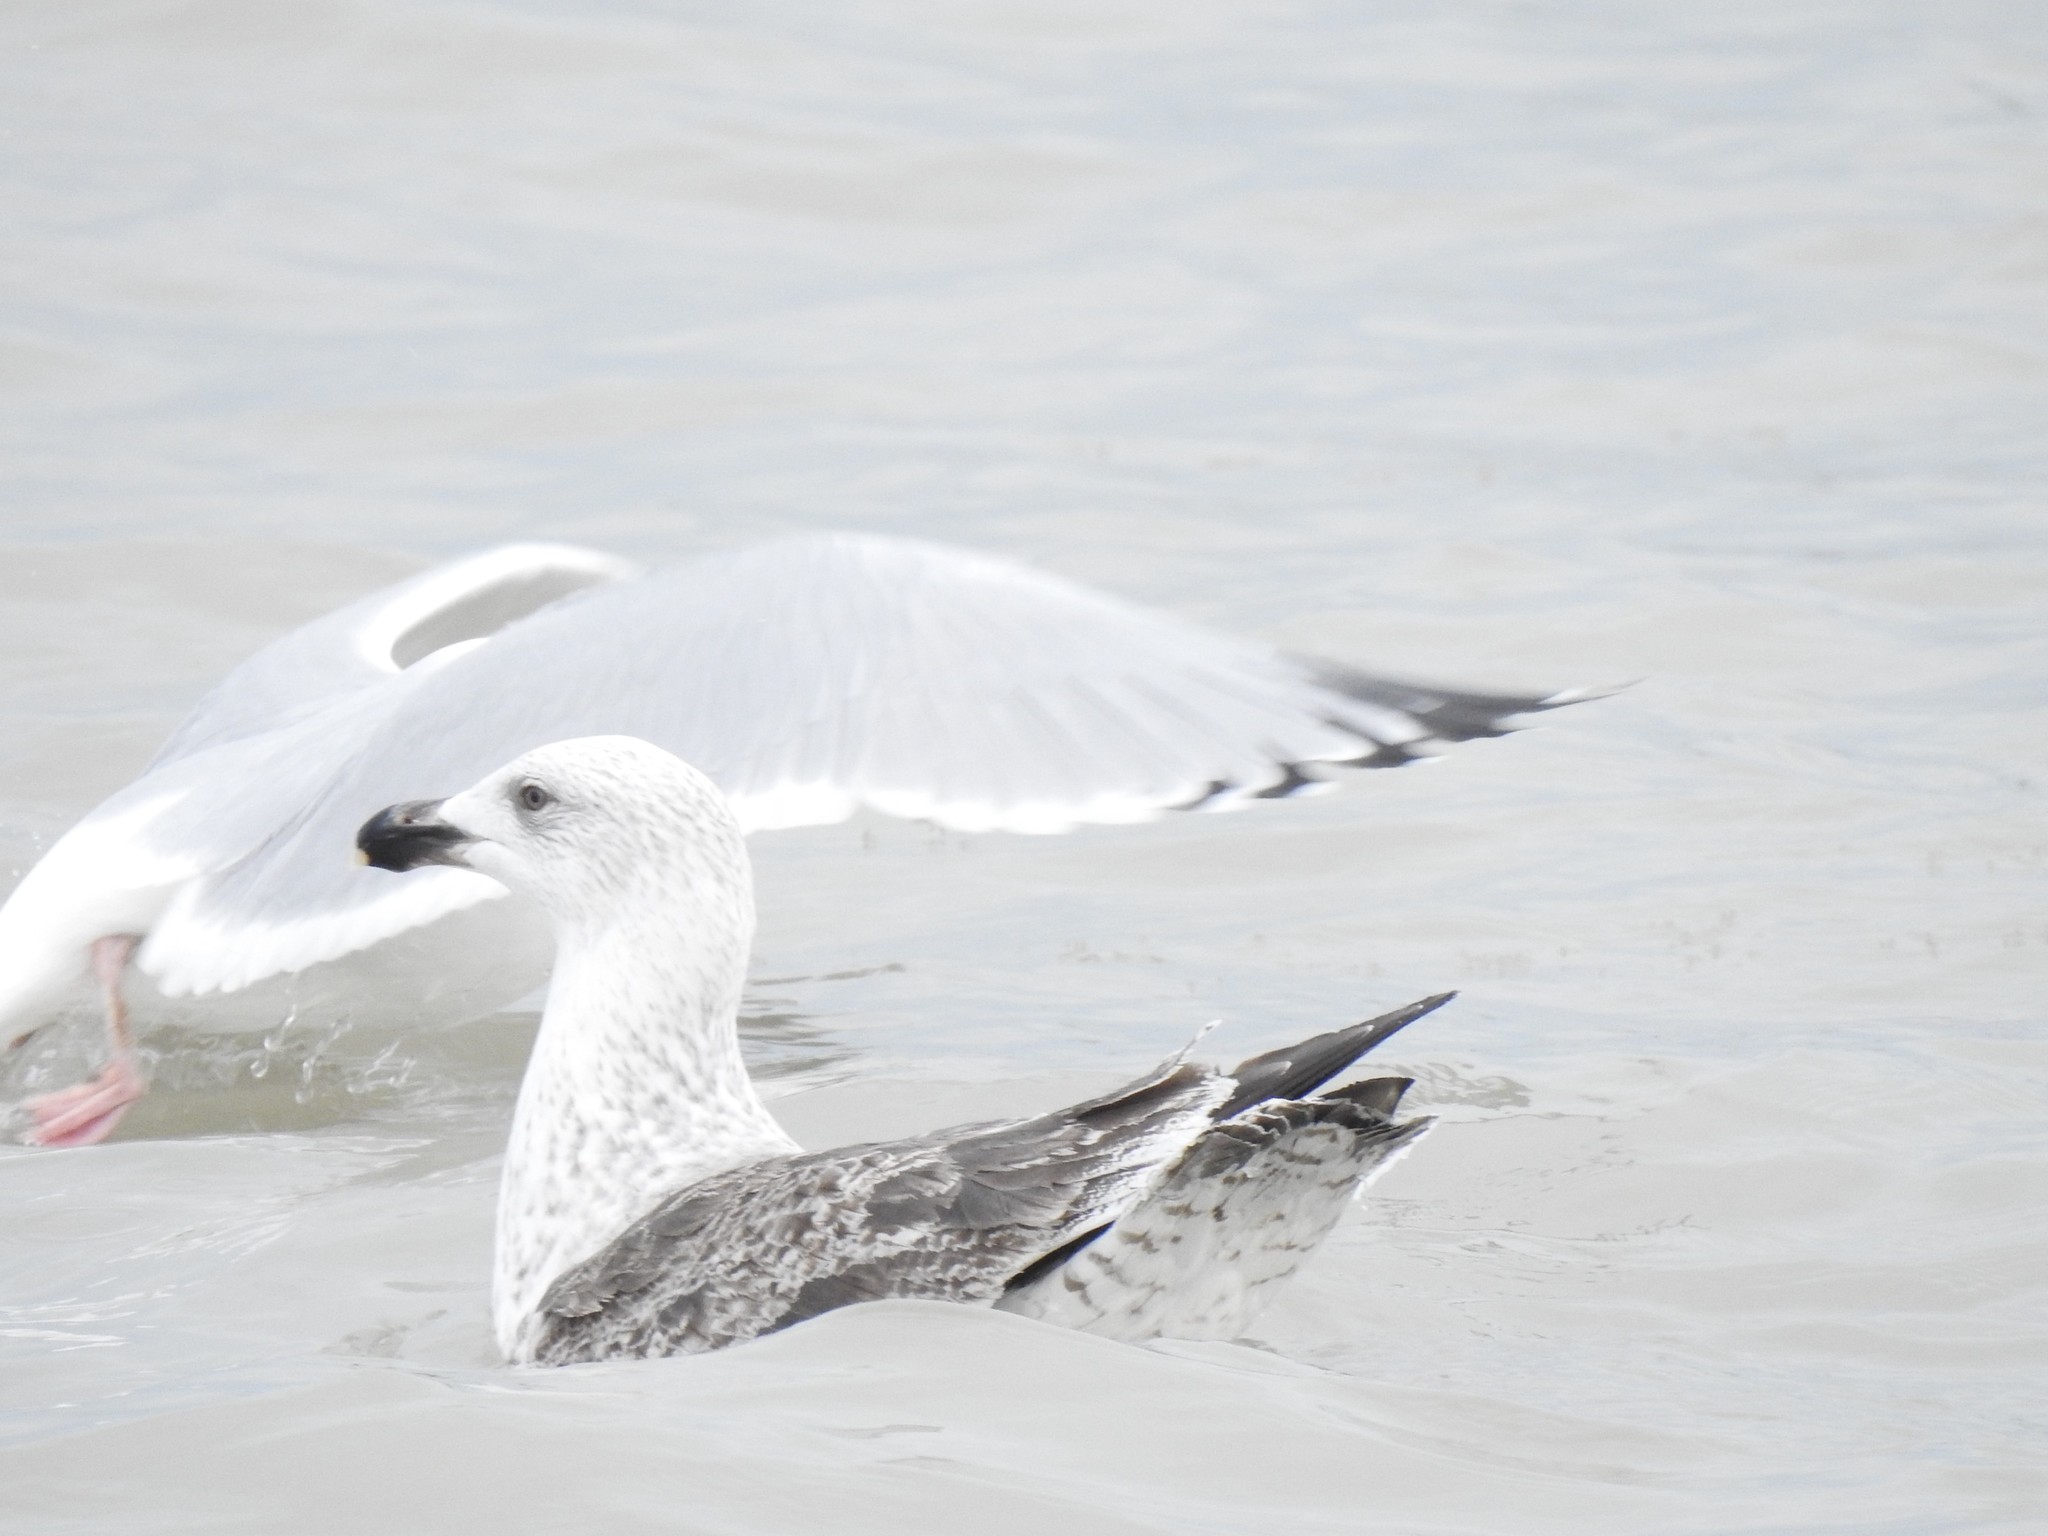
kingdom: Animalia
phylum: Chordata
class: Aves
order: Charadriiformes
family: Laridae
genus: Larus
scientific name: Larus marinus
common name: Great black-backed gull
